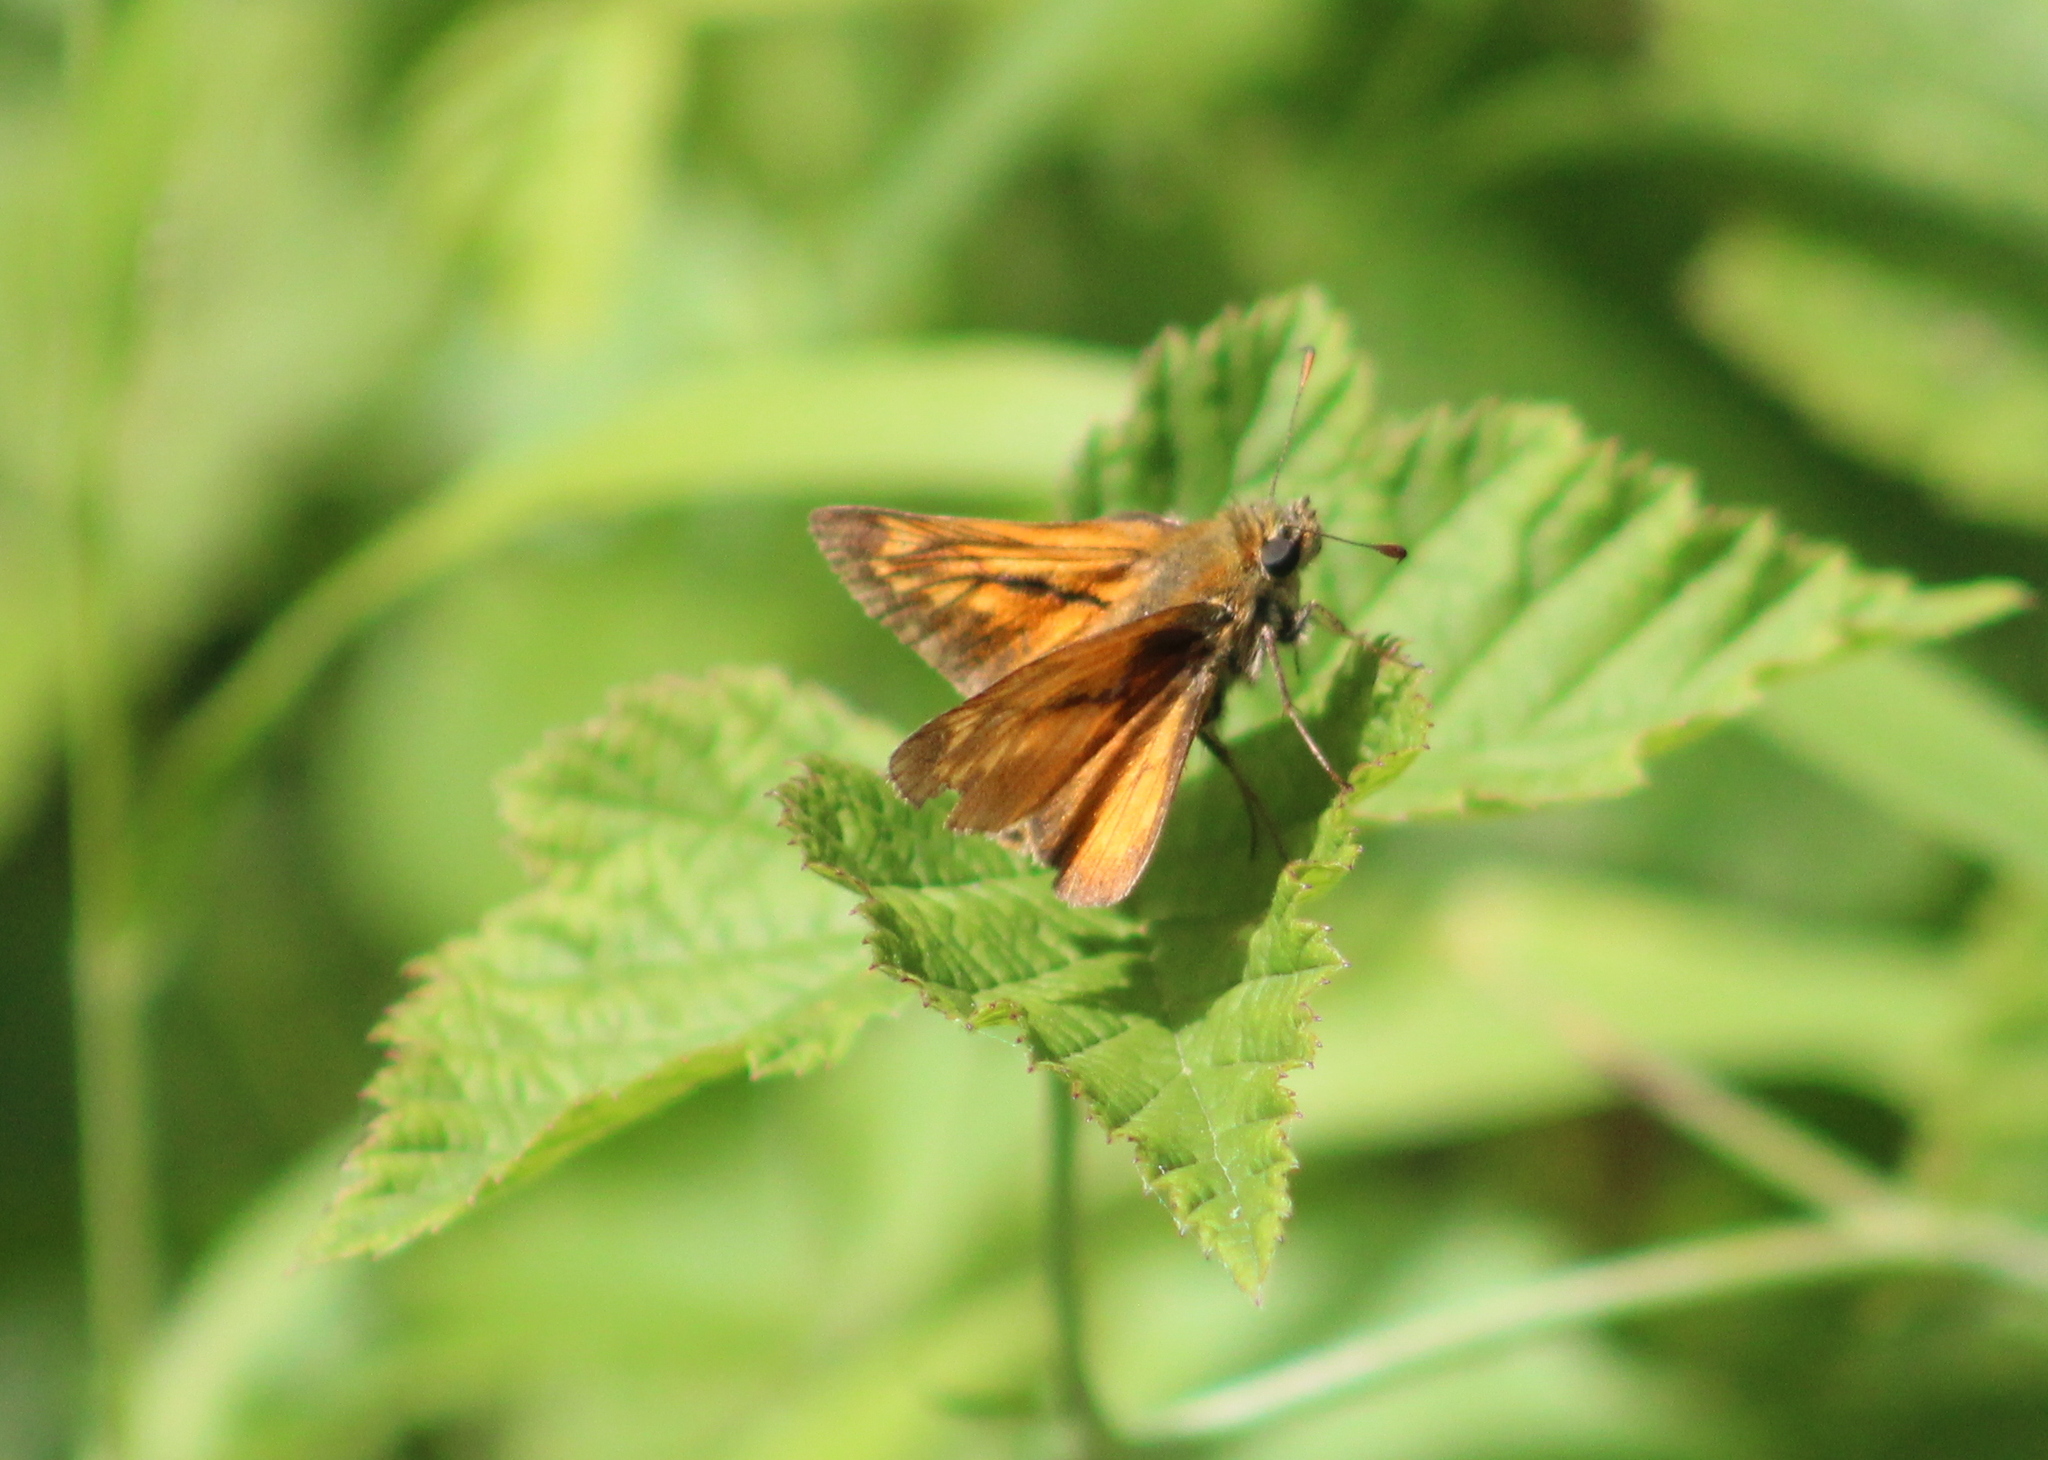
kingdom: Animalia
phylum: Arthropoda
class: Insecta
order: Lepidoptera
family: Hesperiidae
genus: Ochlodes
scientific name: Ochlodes venata
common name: Large skipper
